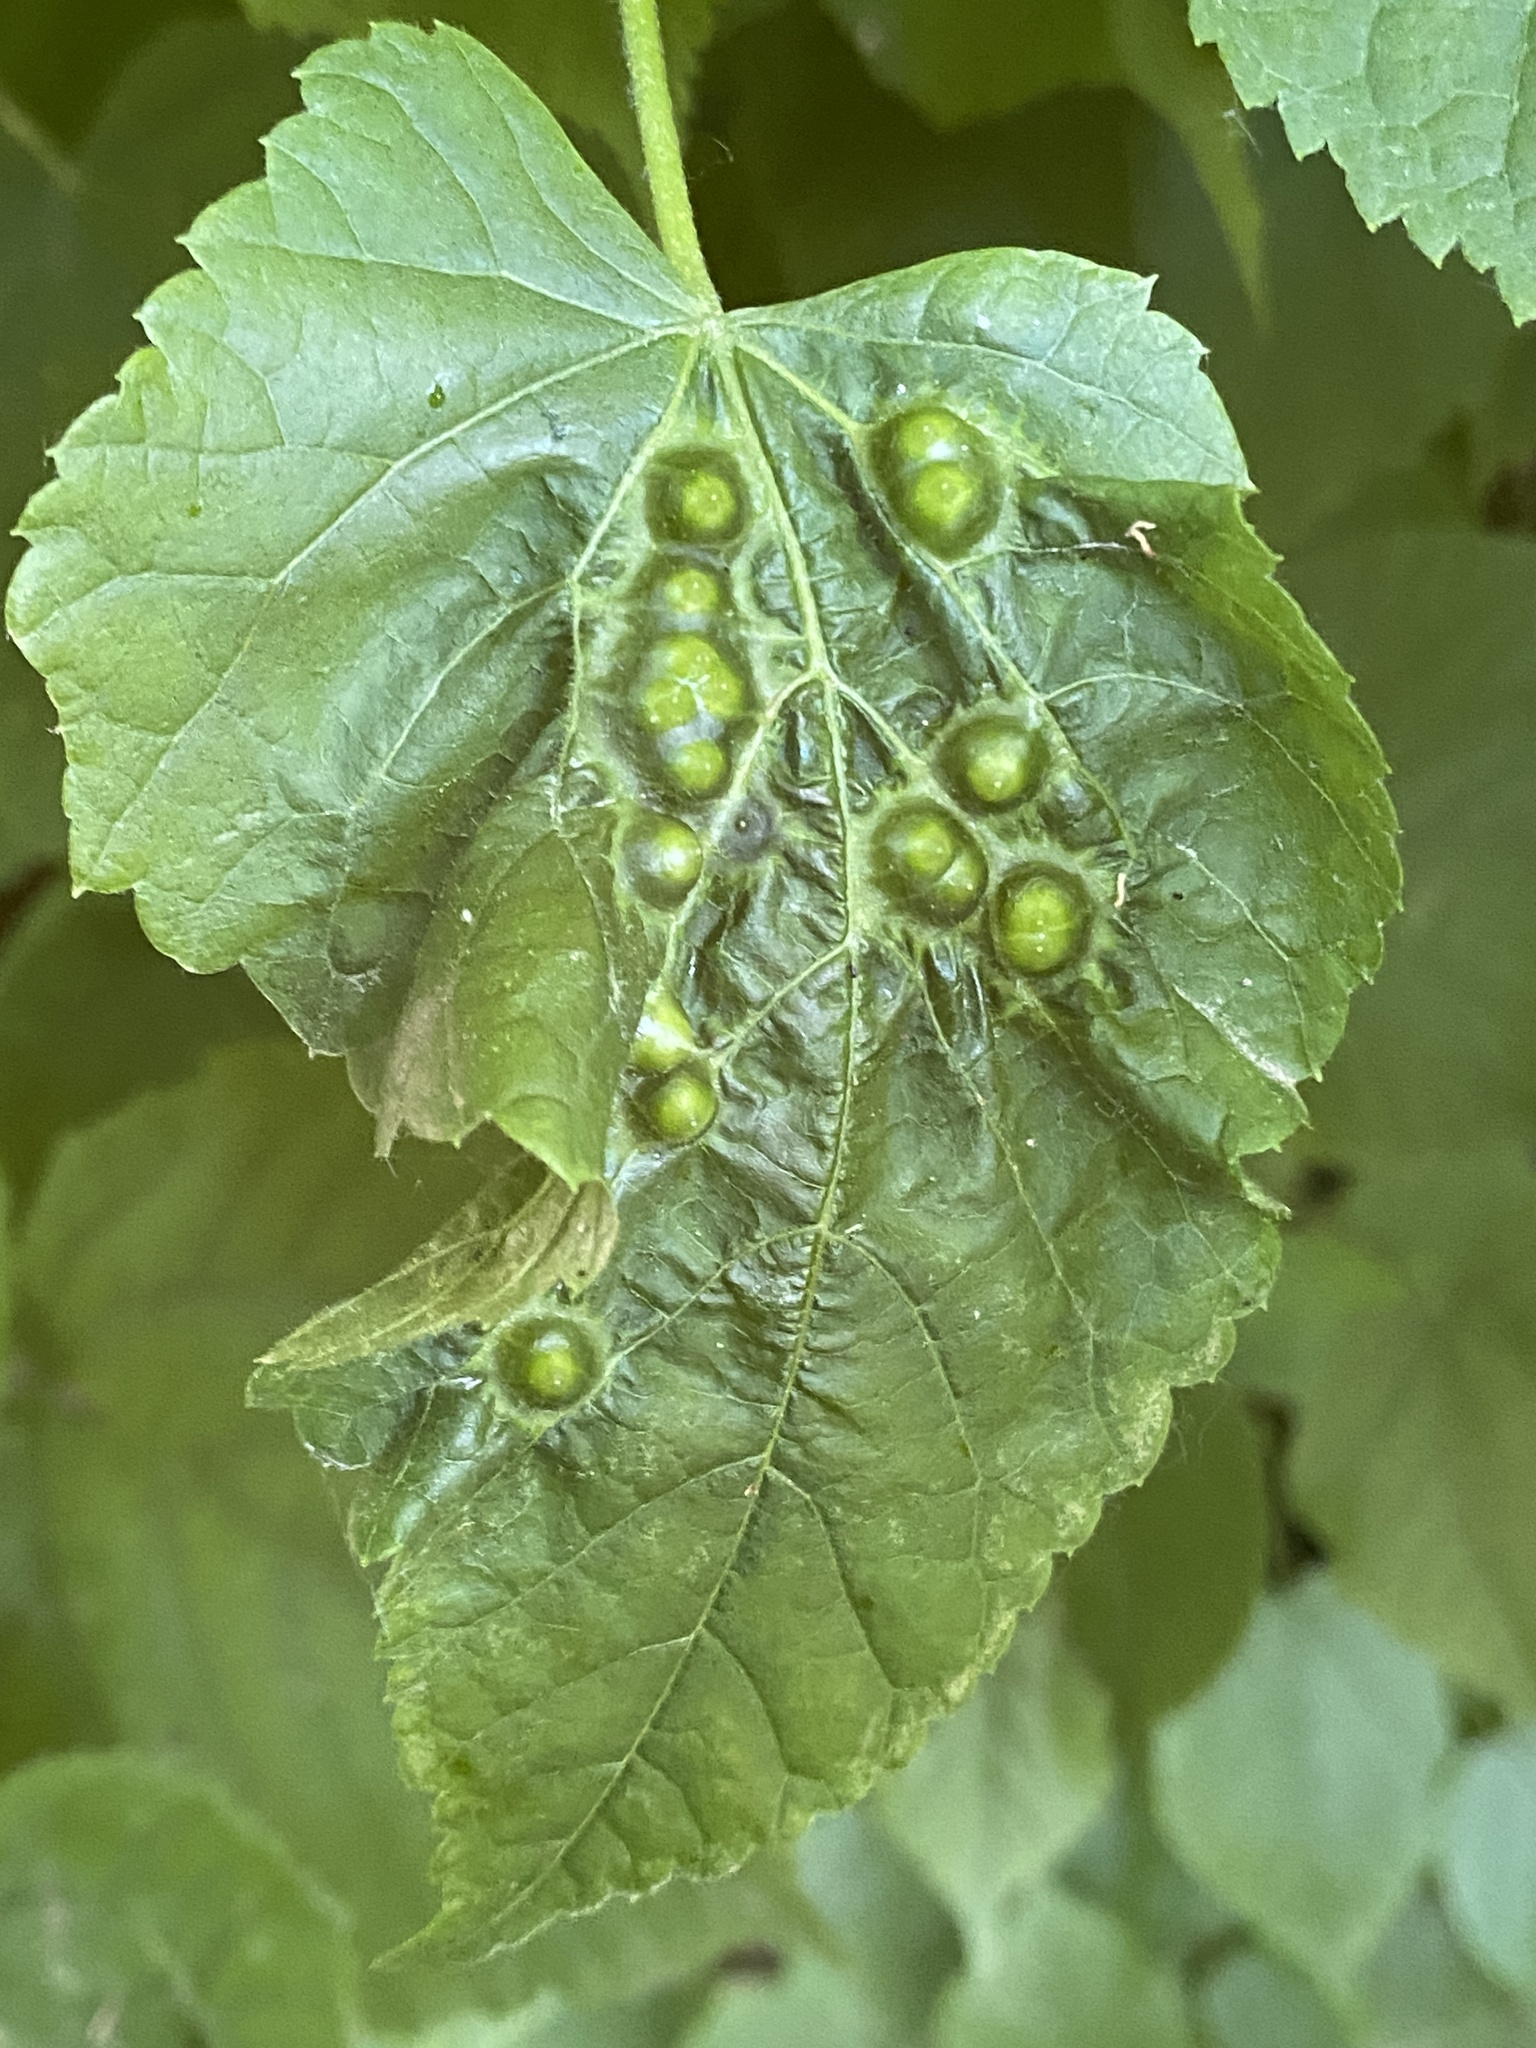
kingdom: Animalia
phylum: Arthropoda
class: Insecta
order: Diptera
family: Cecidomyiidae
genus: Didymomyia
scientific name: Didymomyia tiliacea
